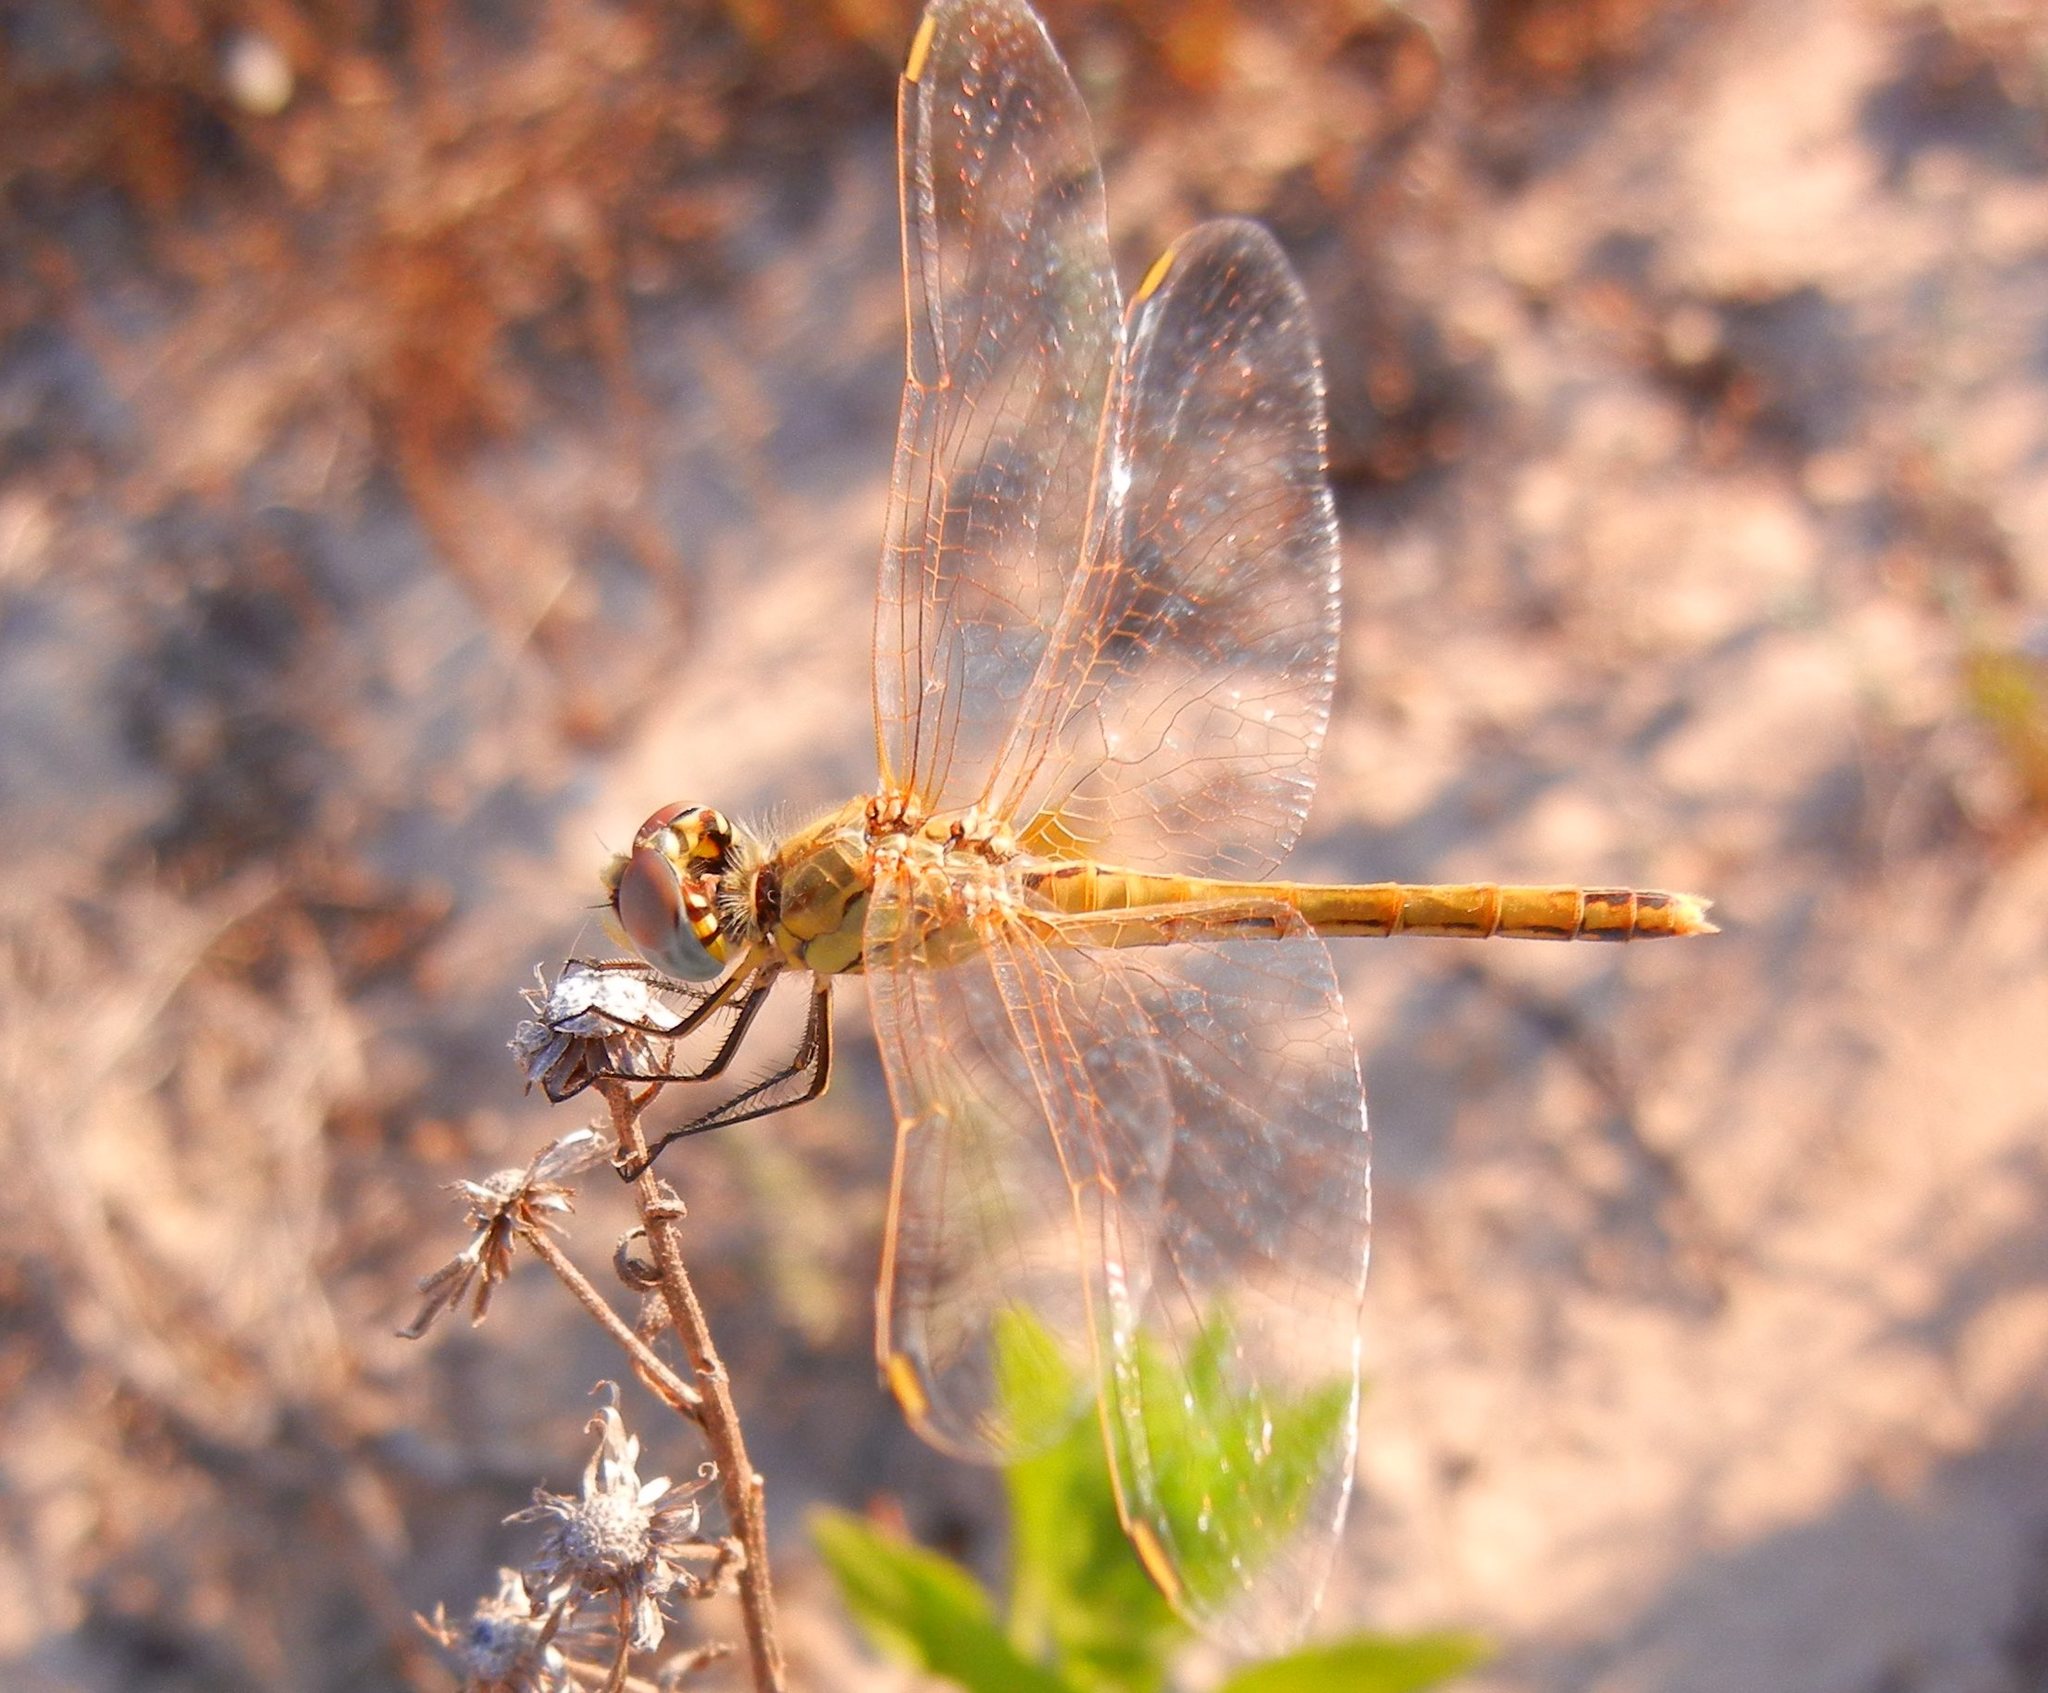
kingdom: Animalia
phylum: Arthropoda
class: Insecta
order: Odonata
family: Libellulidae
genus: Sympetrum
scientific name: Sympetrum fonscolombii
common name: Red-veined darter
